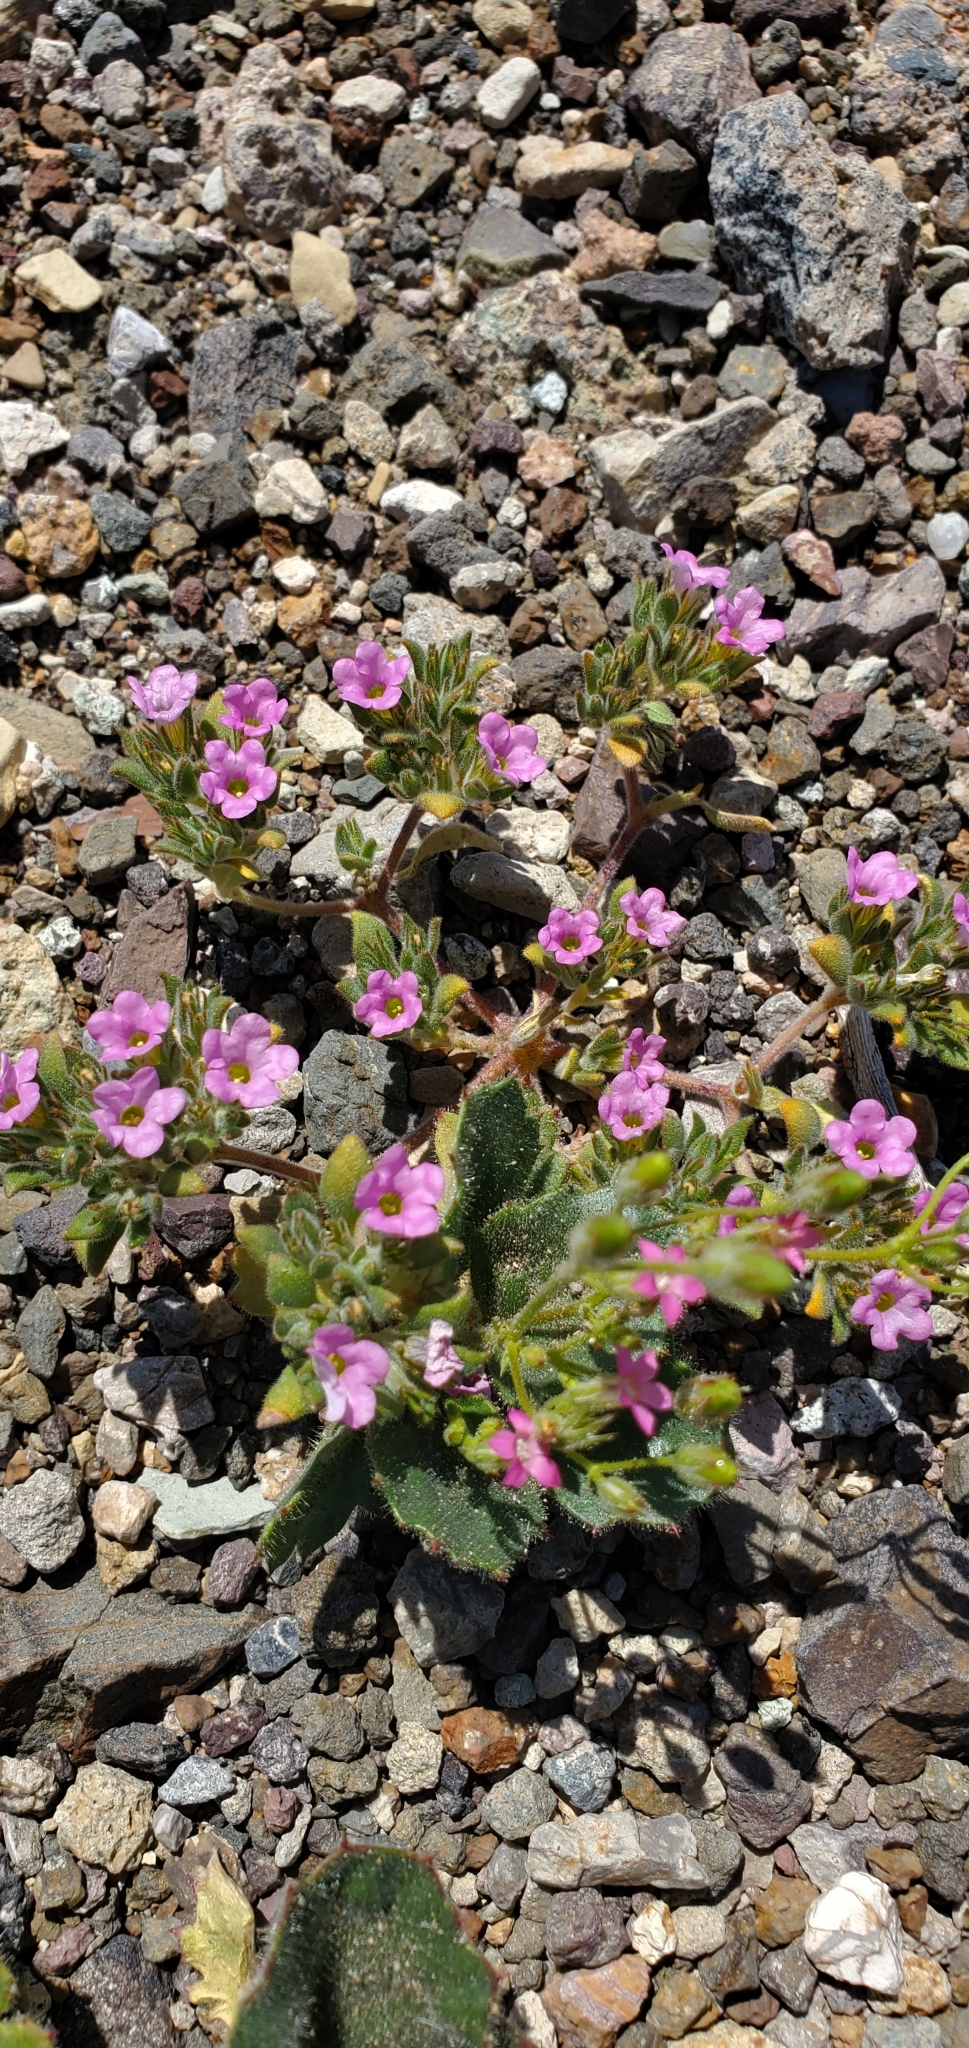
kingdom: Plantae
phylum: Tracheophyta
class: Magnoliopsida
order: Boraginales
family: Namaceae
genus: Nama
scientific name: Nama demissa
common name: Leafy nama
